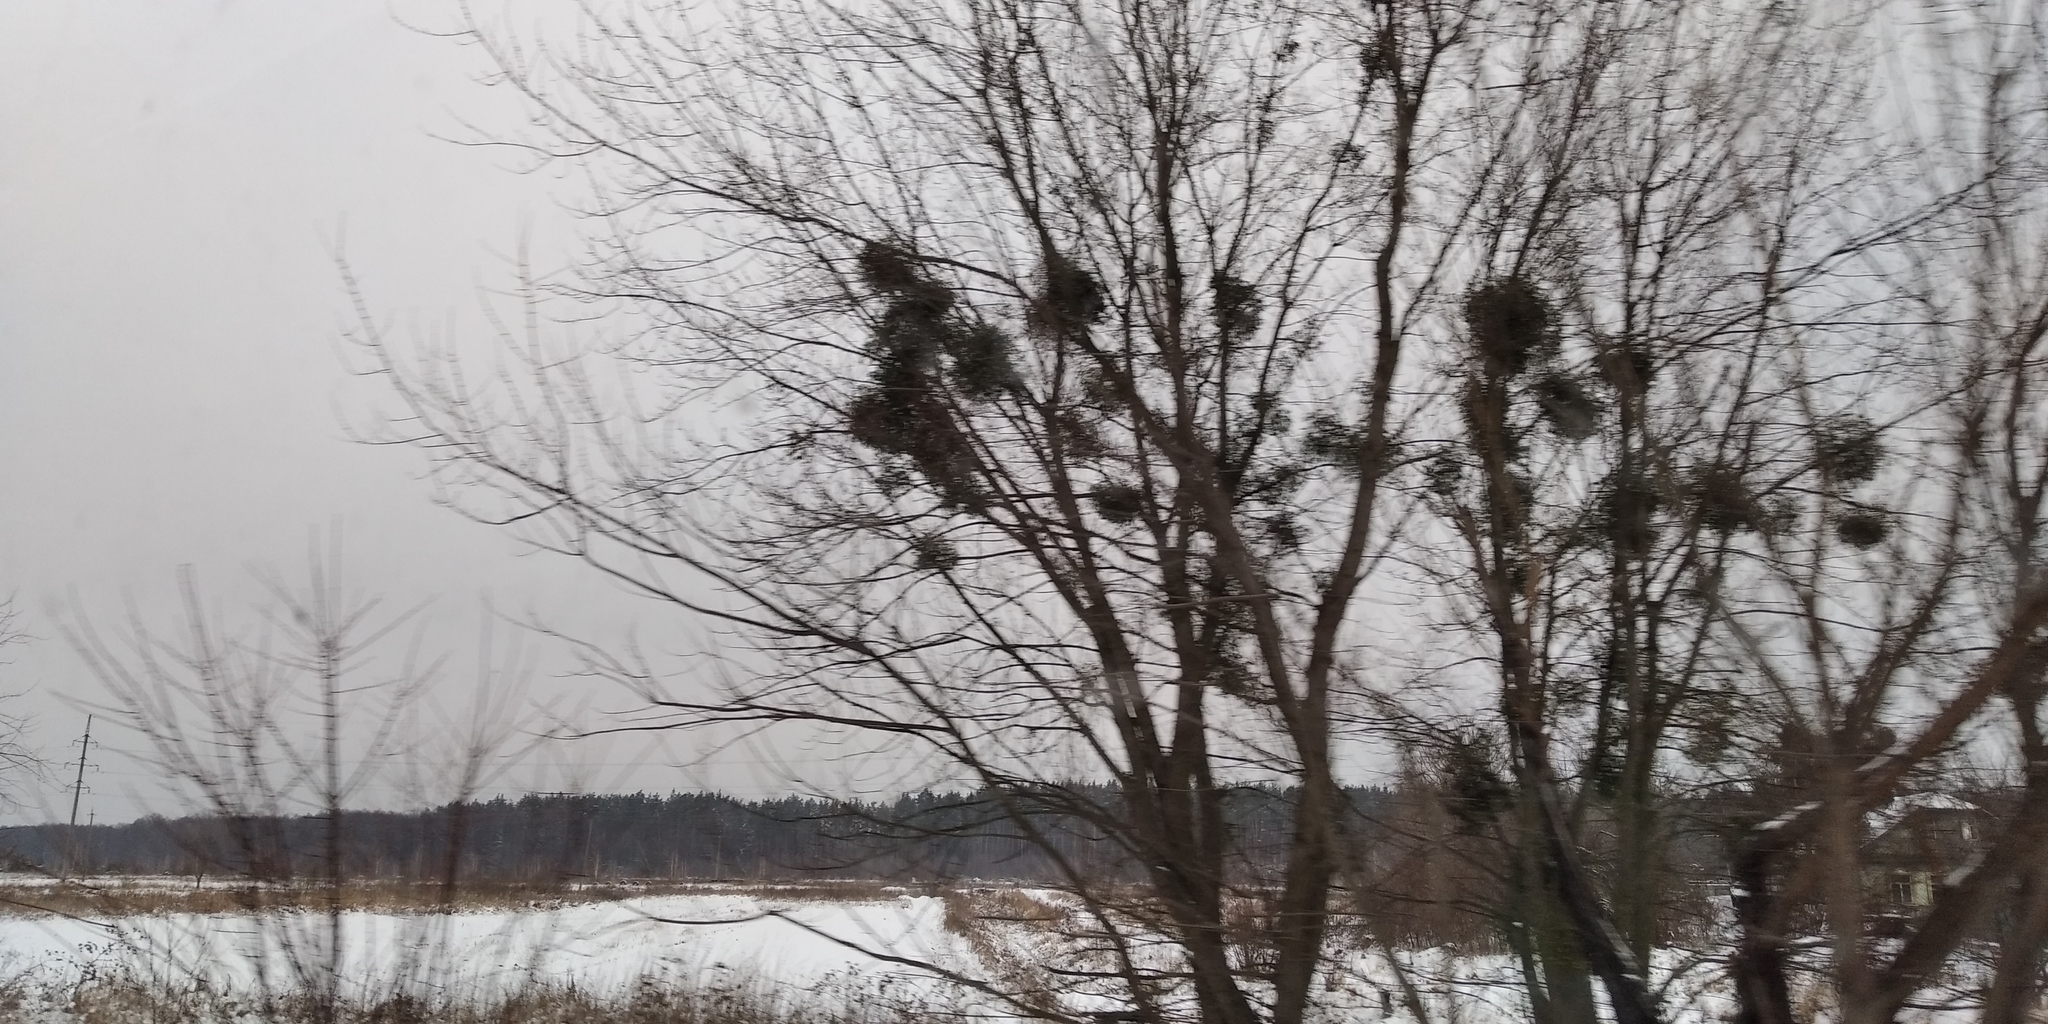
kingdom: Plantae
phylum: Tracheophyta
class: Magnoliopsida
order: Santalales
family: Viscaceae
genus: Viscum
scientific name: Viscum album
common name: Mistletoe
